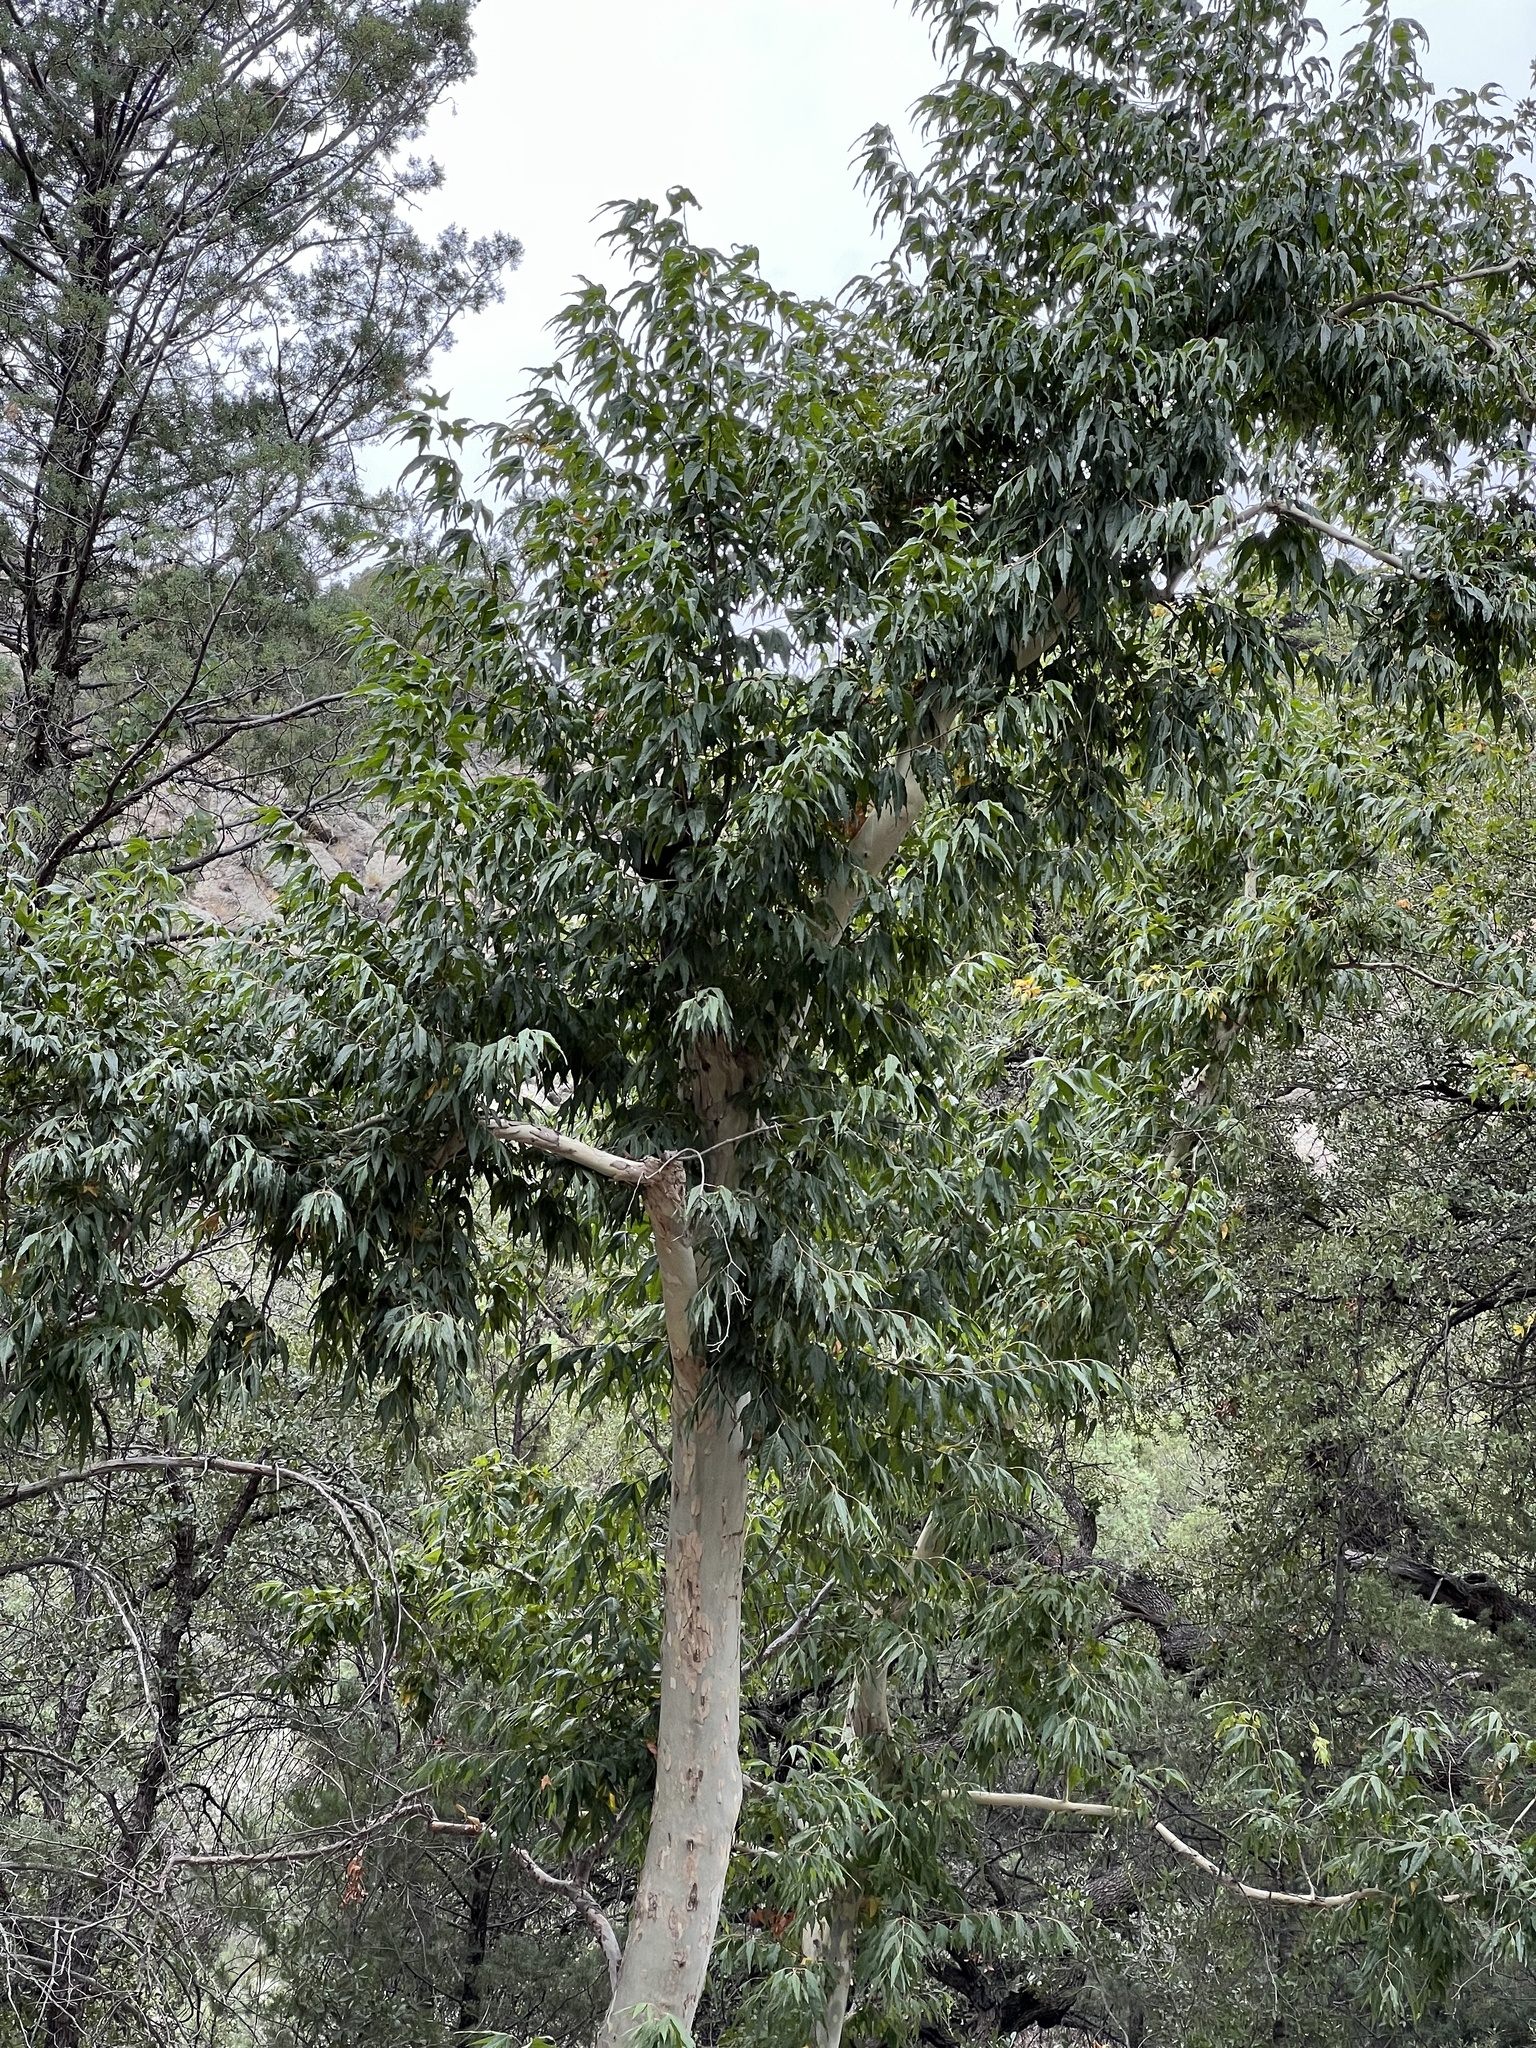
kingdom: Plantae
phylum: Tracheophyta
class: Magnoliopsida
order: Proteales
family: Platanaceae
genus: Platanus
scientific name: Platanus wrightii
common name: Arizona sycamore
